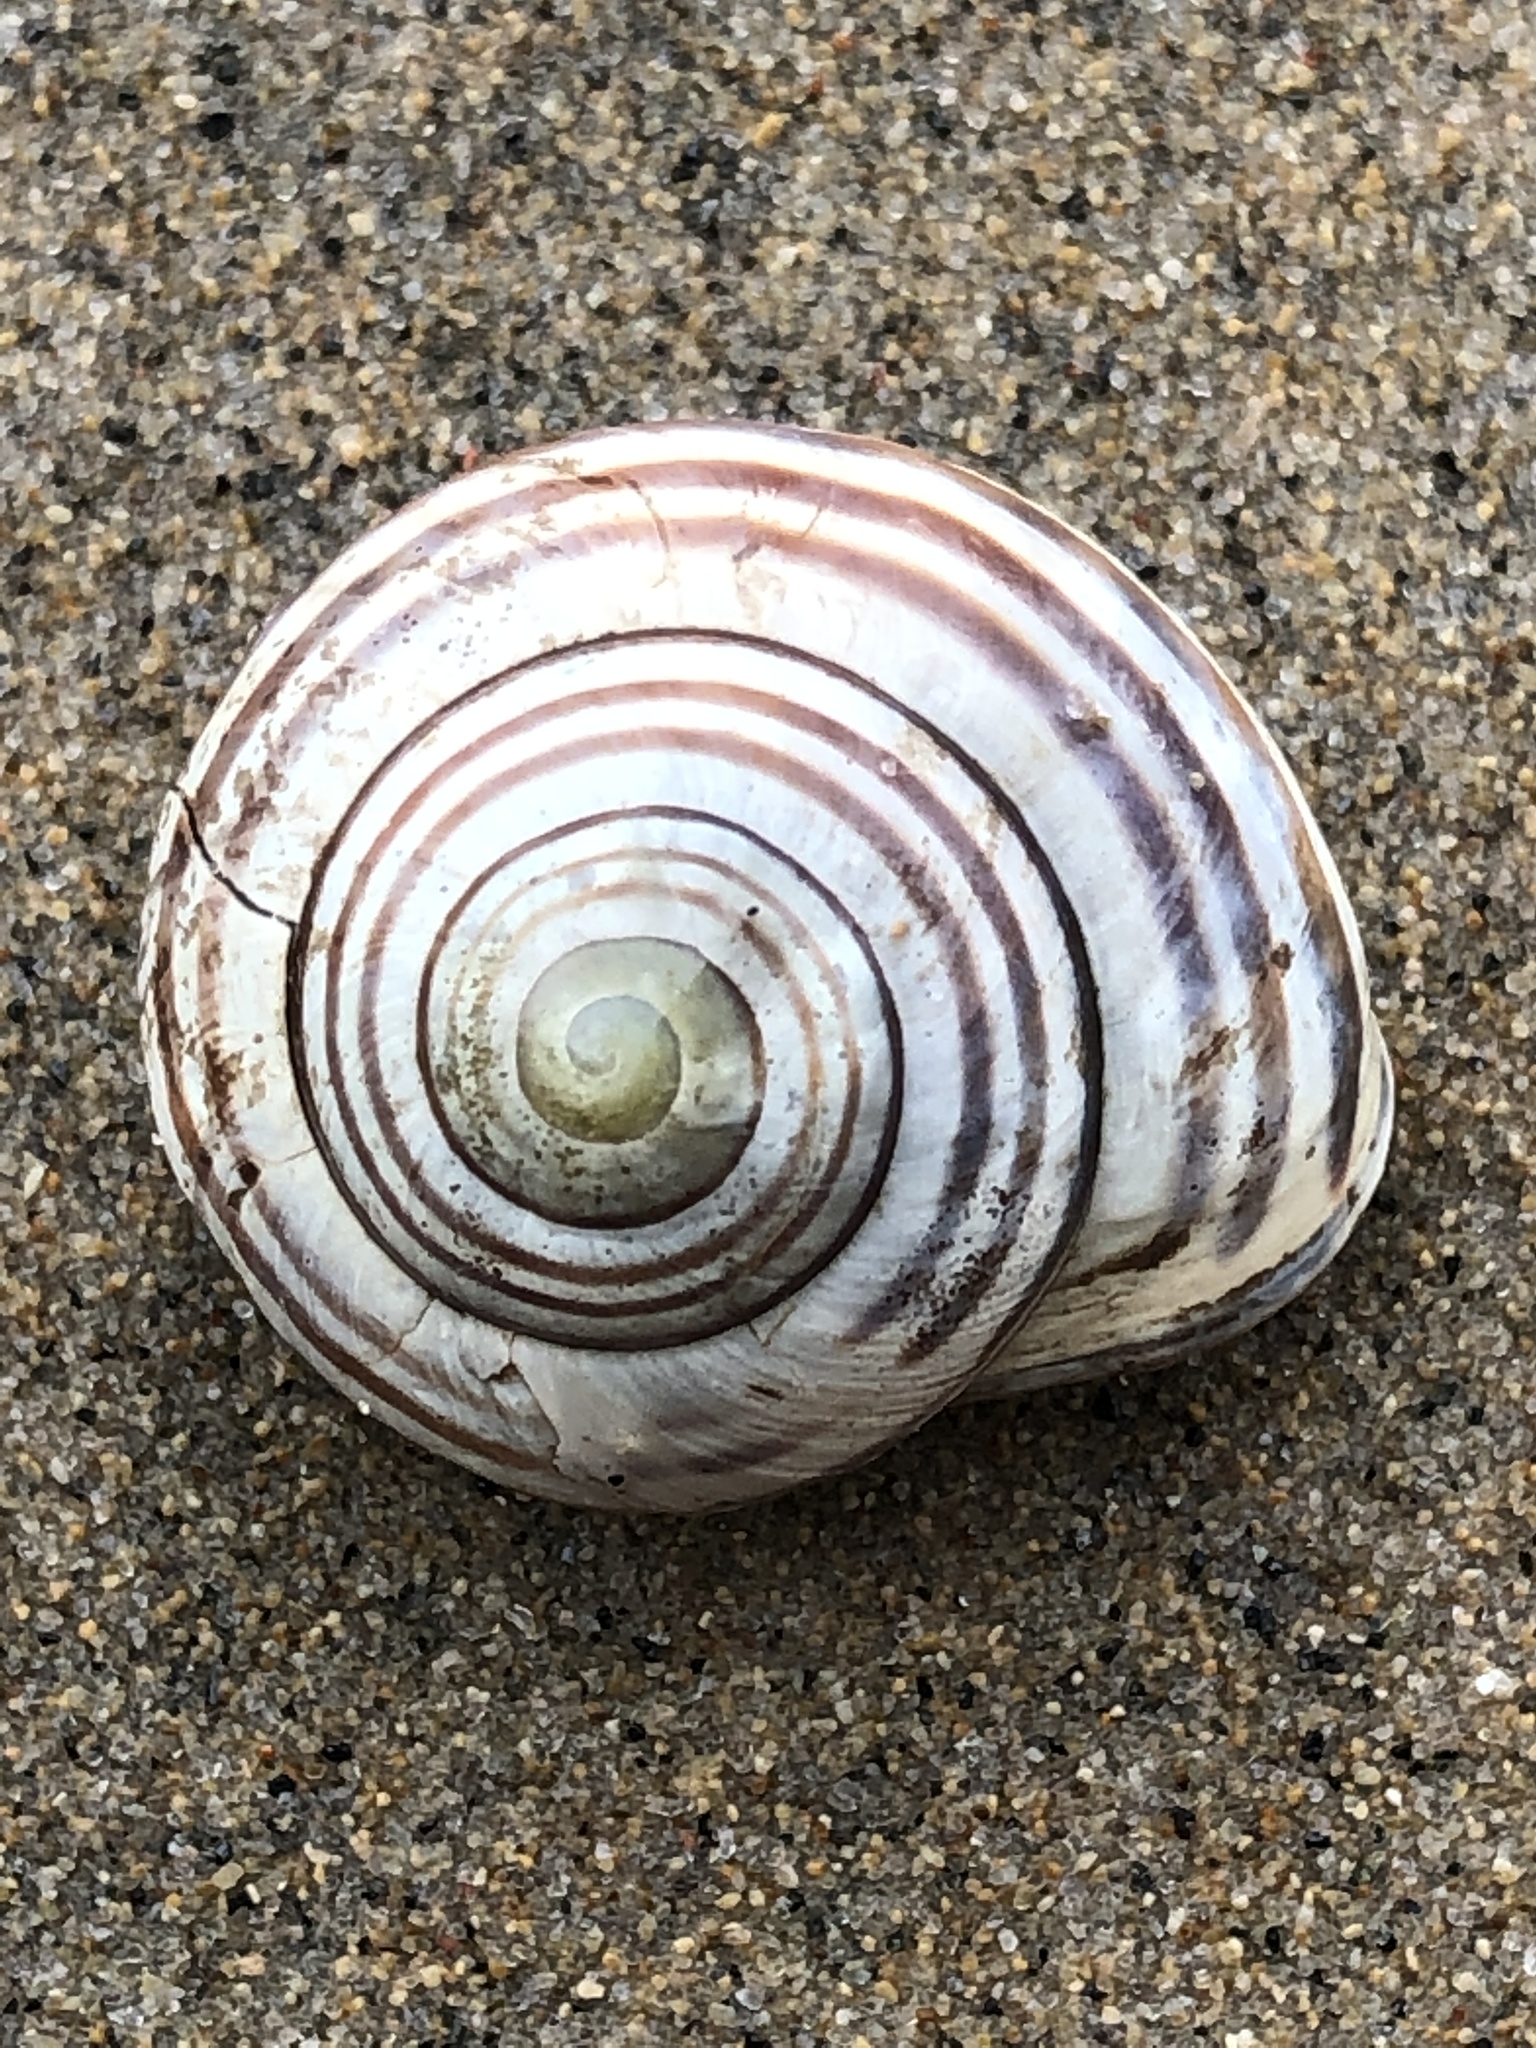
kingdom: Animalia
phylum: Mollusca
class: Gastropoda
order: Stylommatophora
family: Helicidae
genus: Cepaea
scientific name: Cepaea nemoralis
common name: Grovesnail
